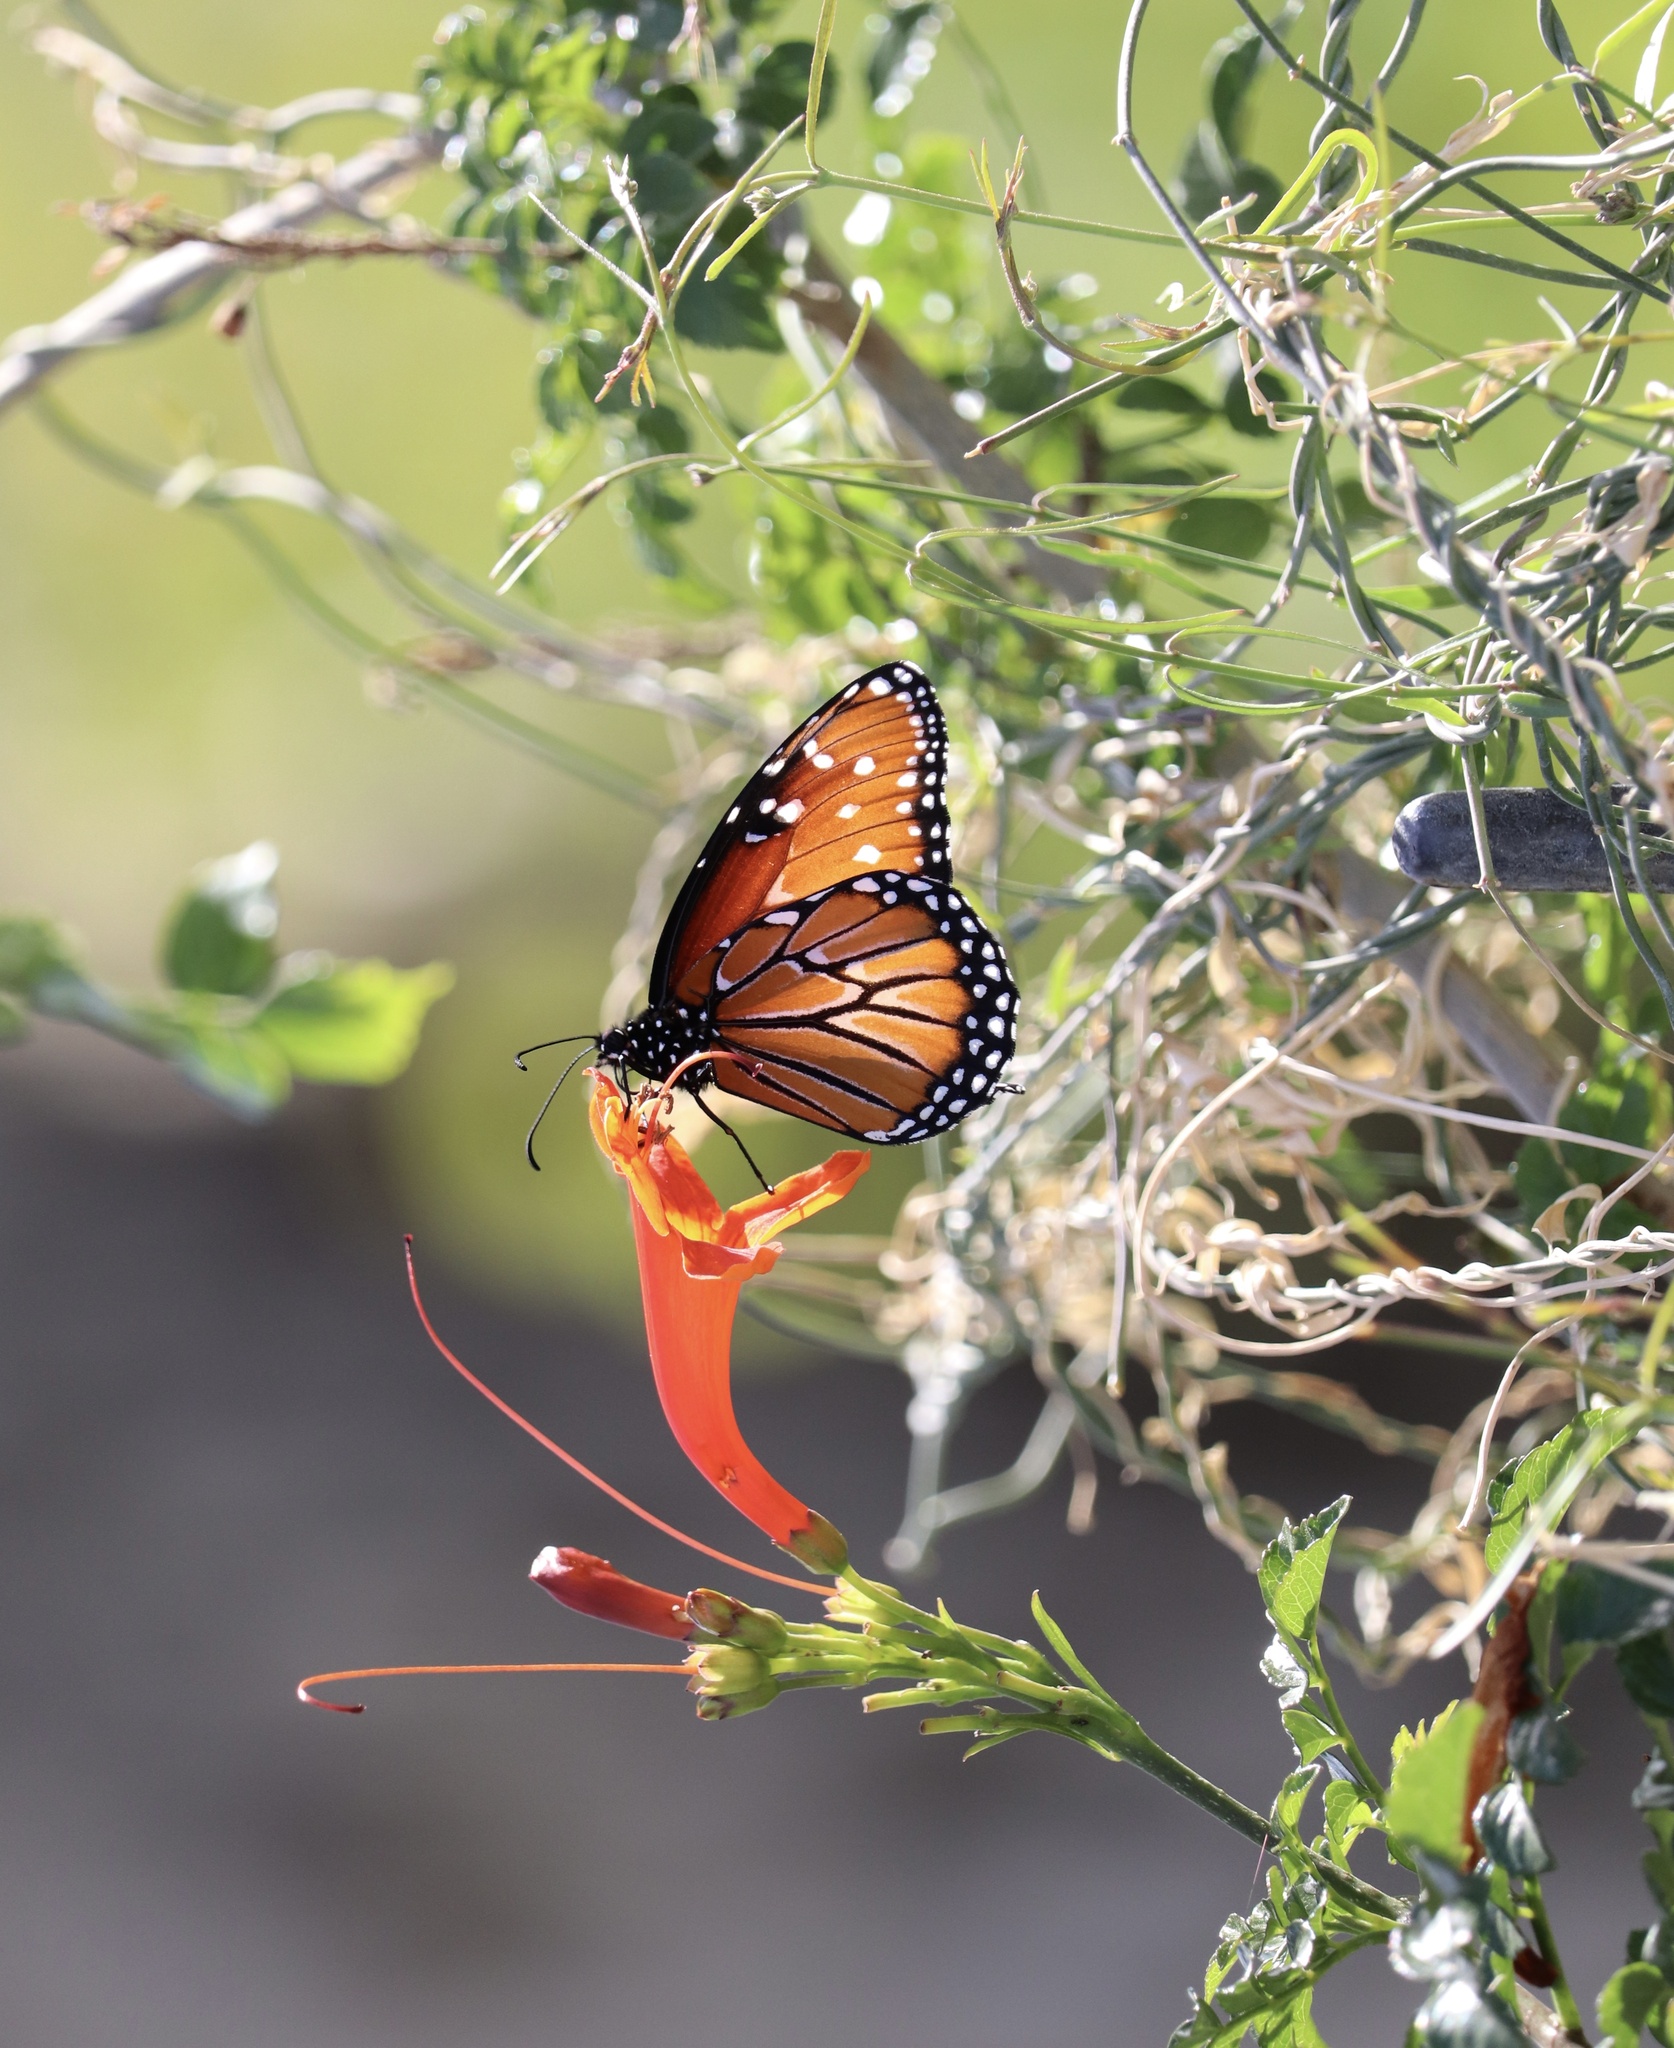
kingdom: Animalia
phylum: Arthropoda
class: Insecta
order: Lepidoptera
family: Nymphalidae
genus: Danaus
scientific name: Danaus gilippus
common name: Queen
